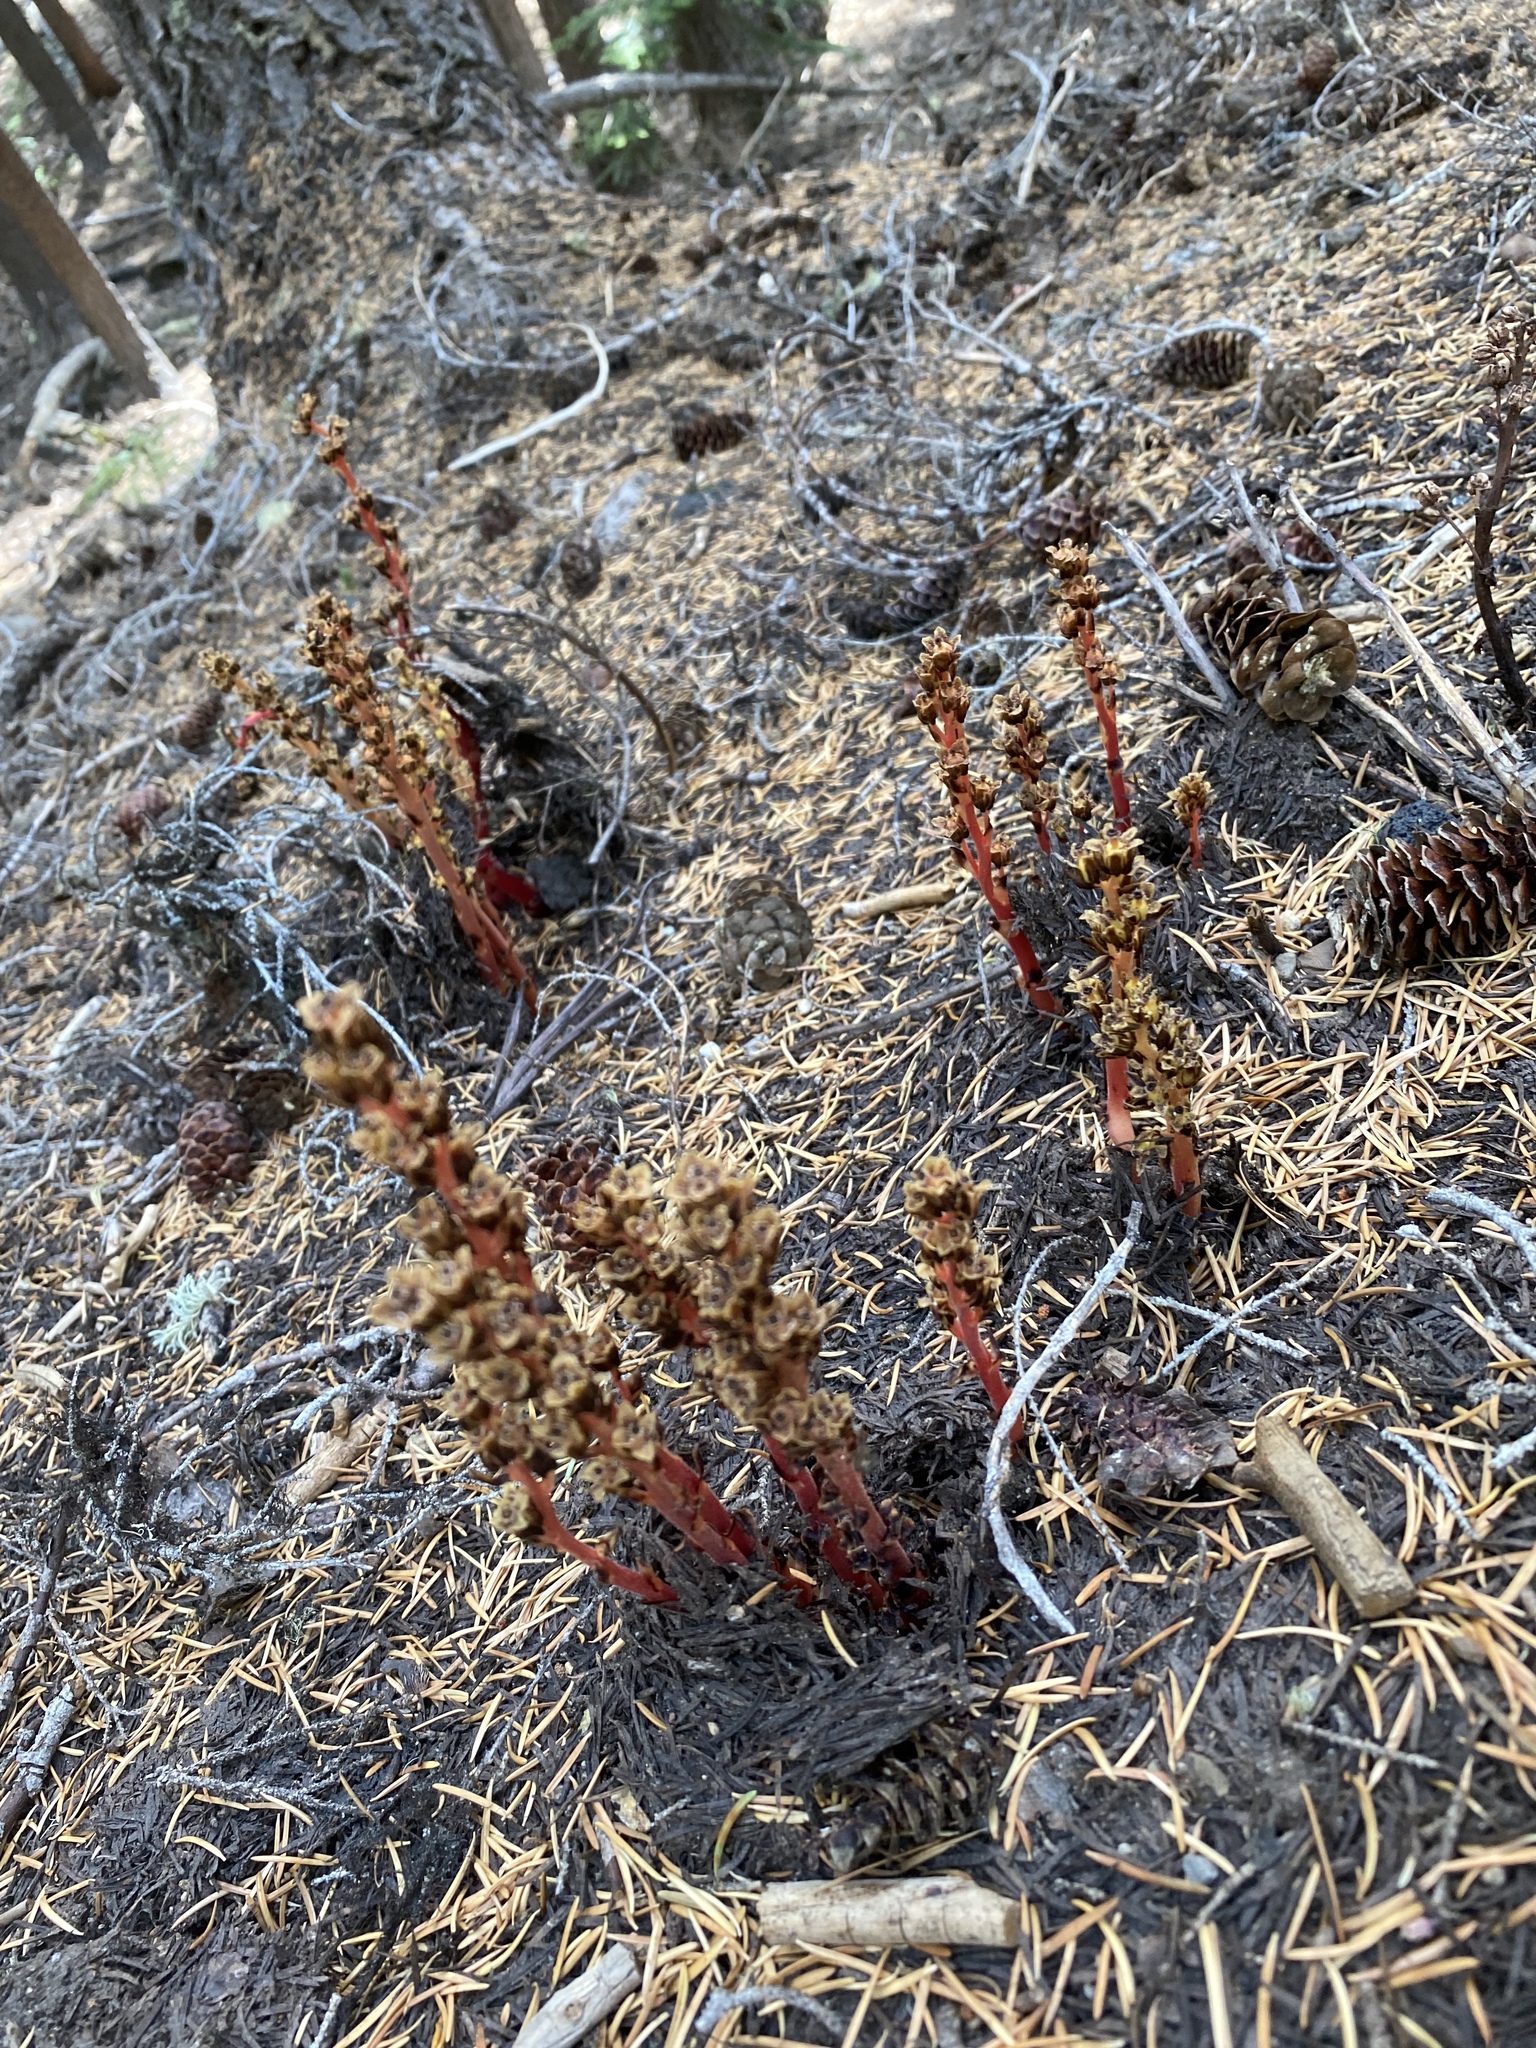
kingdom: Plantae
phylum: Tracheophyta
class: Magnoliopsida
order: Ericales
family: Ericaceae
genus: Hypopitys
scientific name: Hypopitys monotropa
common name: Yellow bird's-nest
